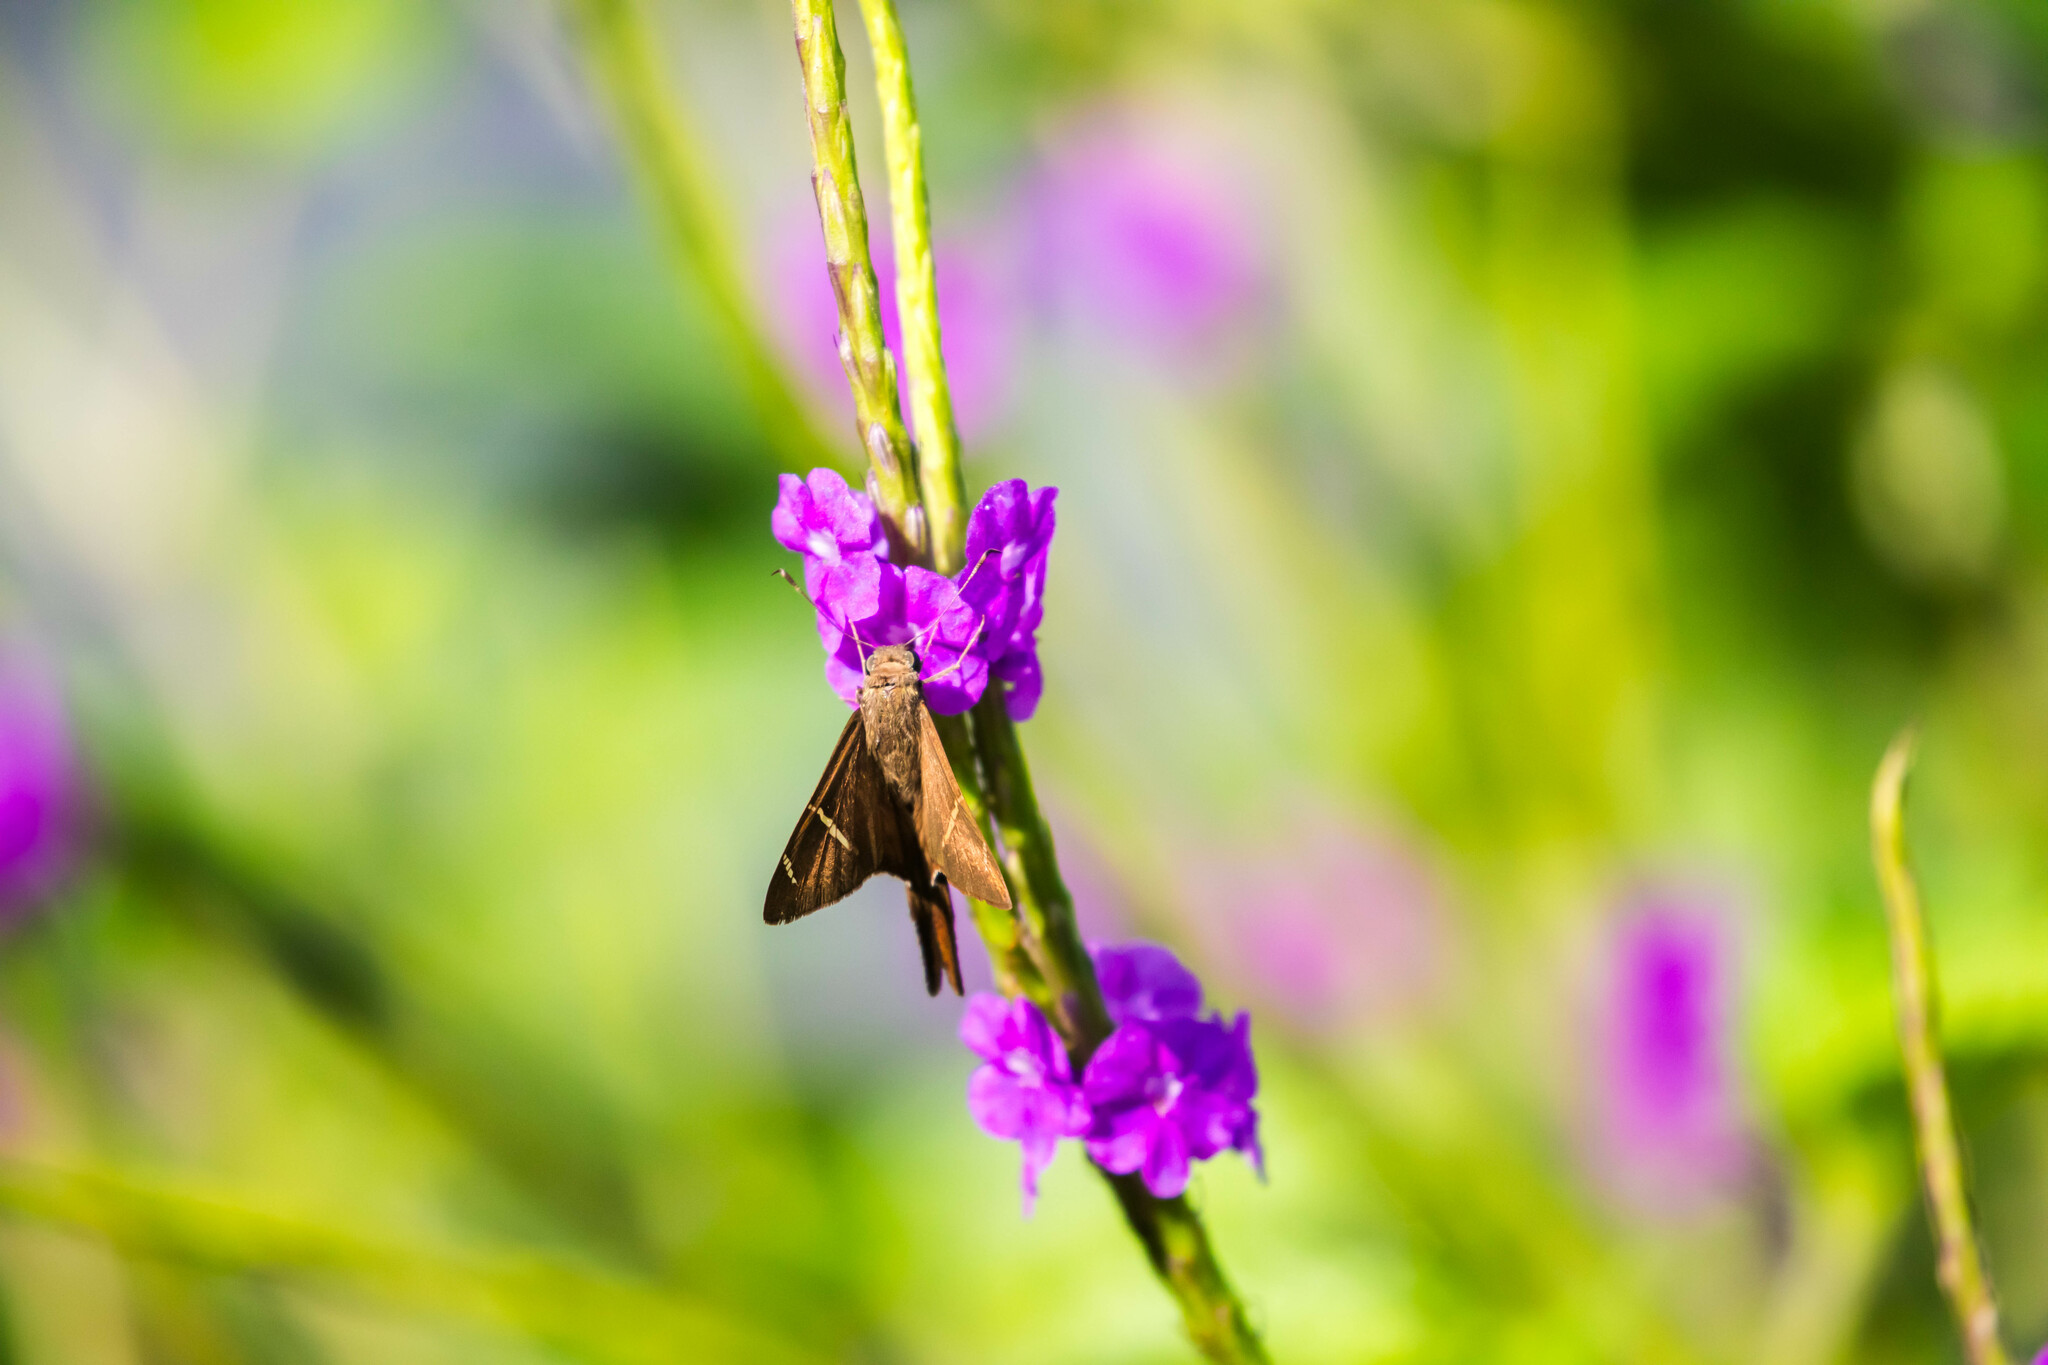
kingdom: Animalia
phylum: Arthropoda
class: Insecta
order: Lepidoptera
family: Hesperiidae
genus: Urbanus
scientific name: Urbanus tanna
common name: Tanna longtail
